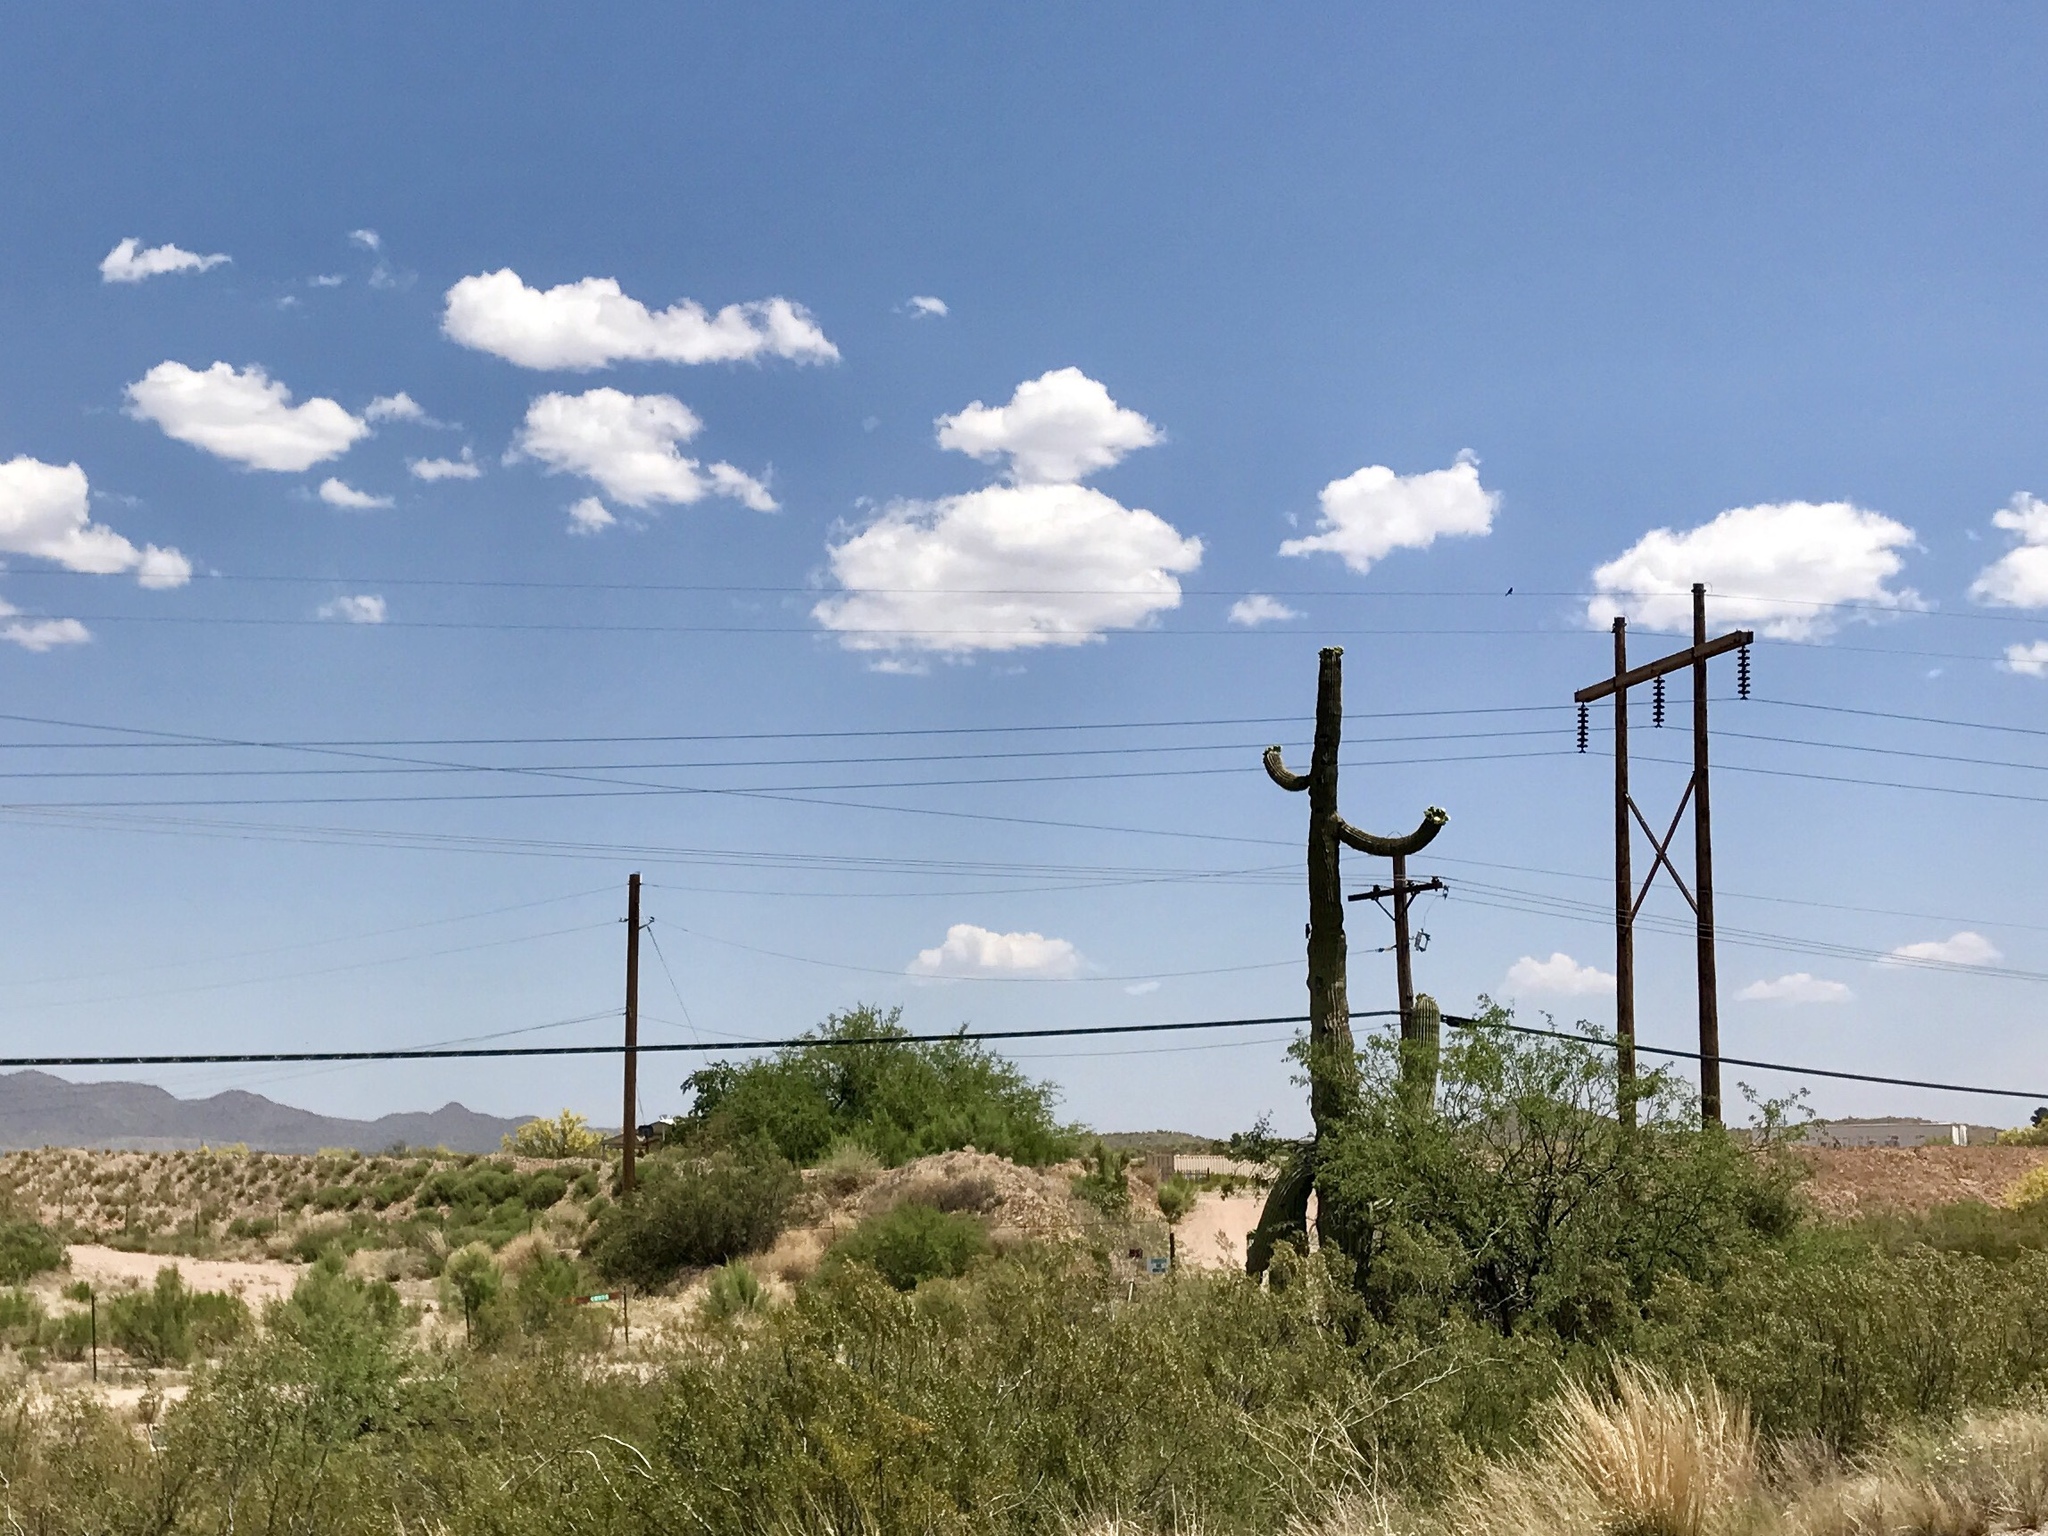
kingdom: Plantae
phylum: Tracheophyta
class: Magnoliopsida
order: Caryophyllales
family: Cactaceae
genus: Carnegiea
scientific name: Carnegiea gigantea
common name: Saguaro
